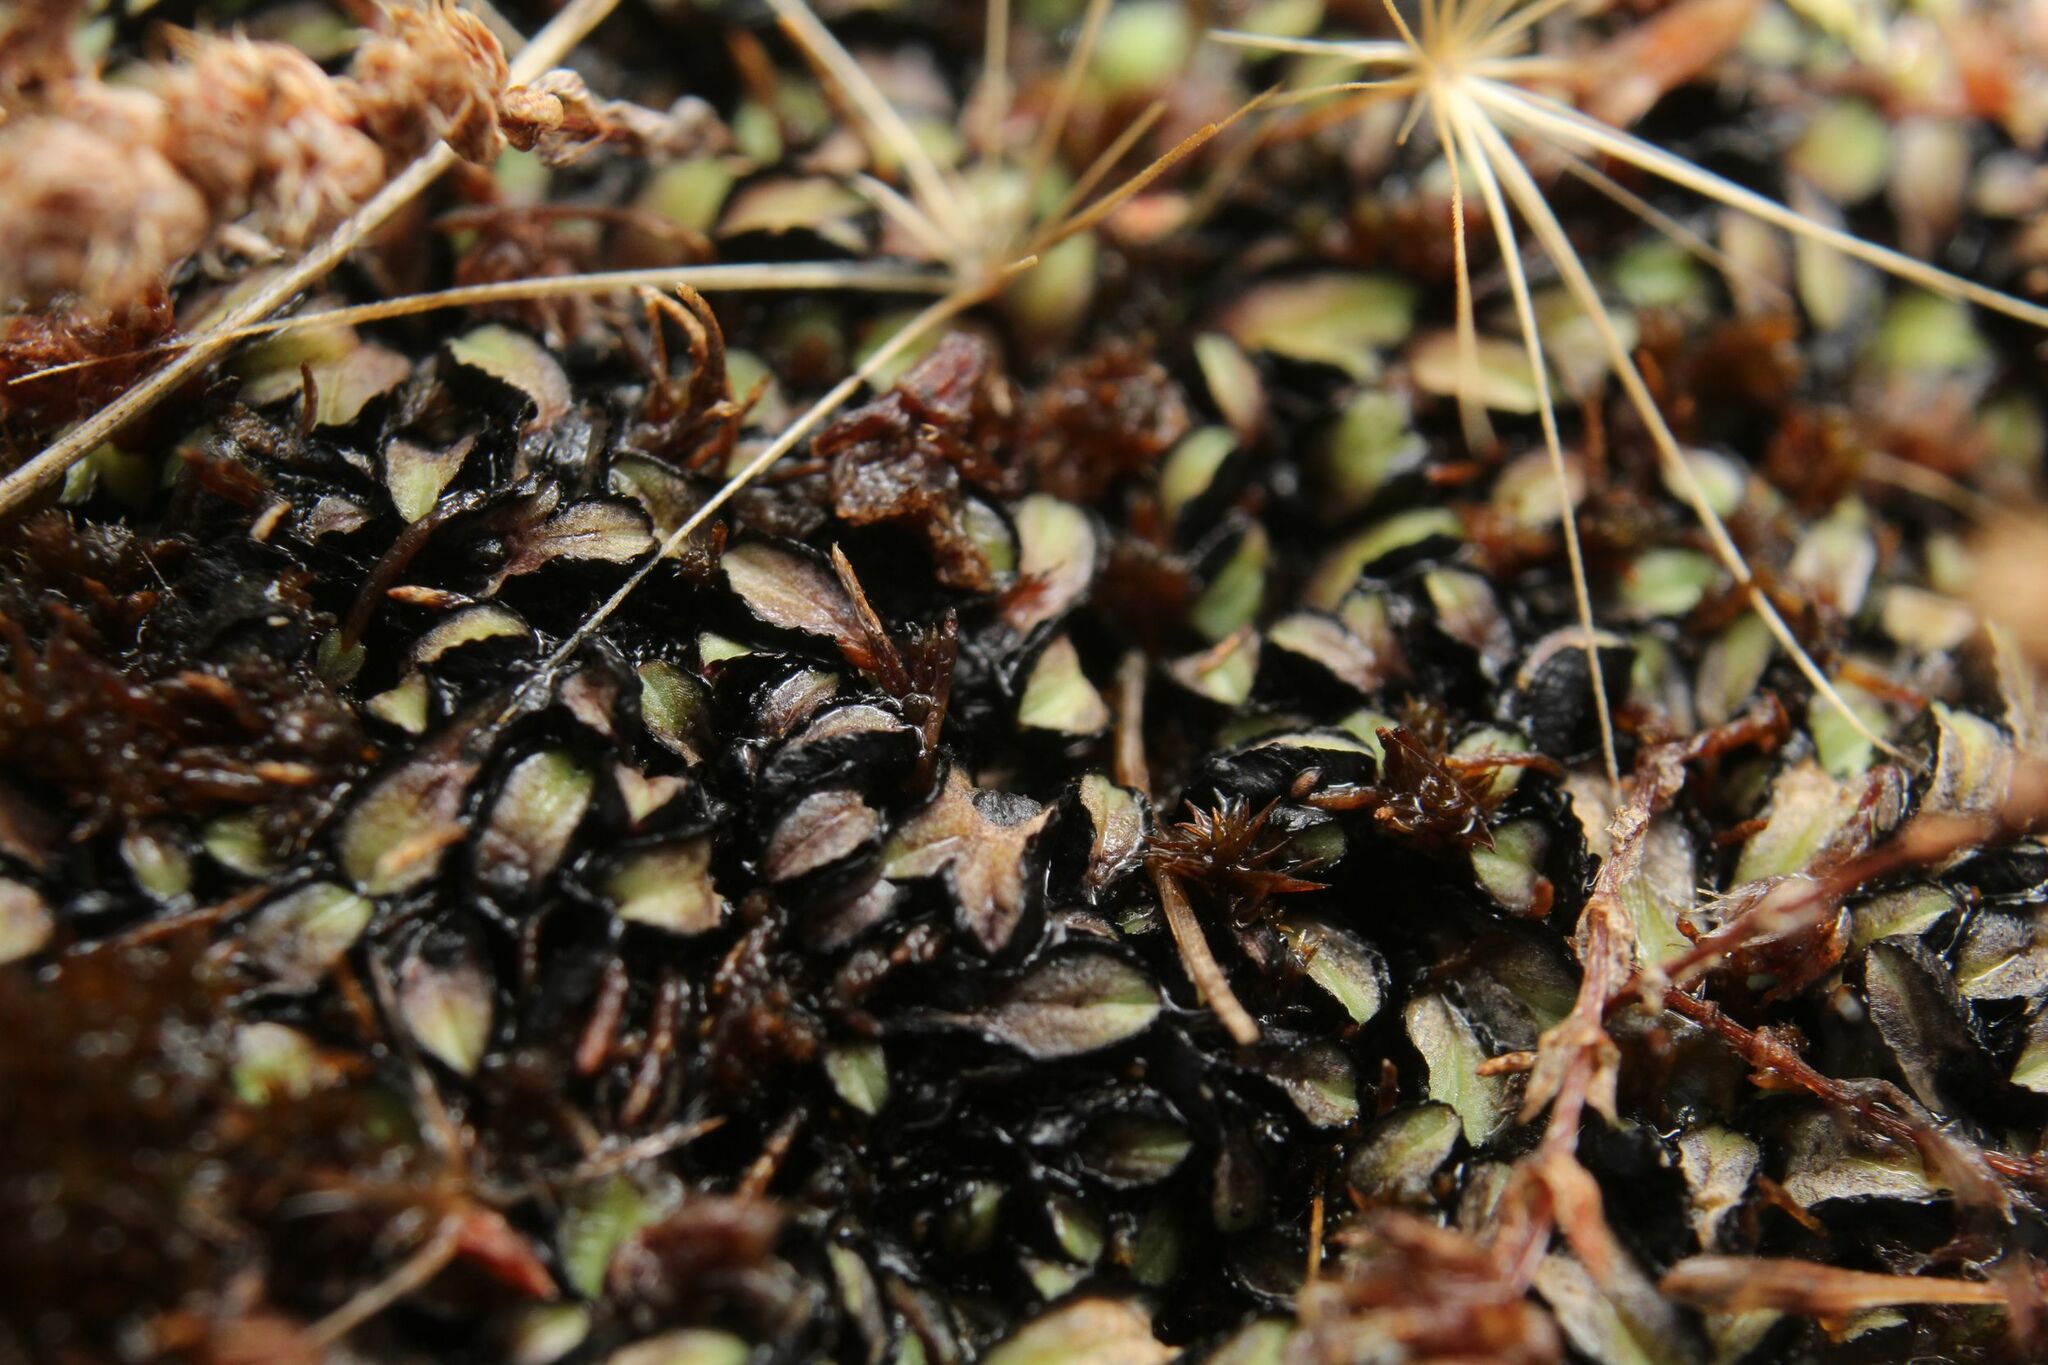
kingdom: Plantae
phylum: Marchantiophyta
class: Marchantiopsida
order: Marchantiales
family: Ricciaceae
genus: Riccia
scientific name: Riccia inflexa
